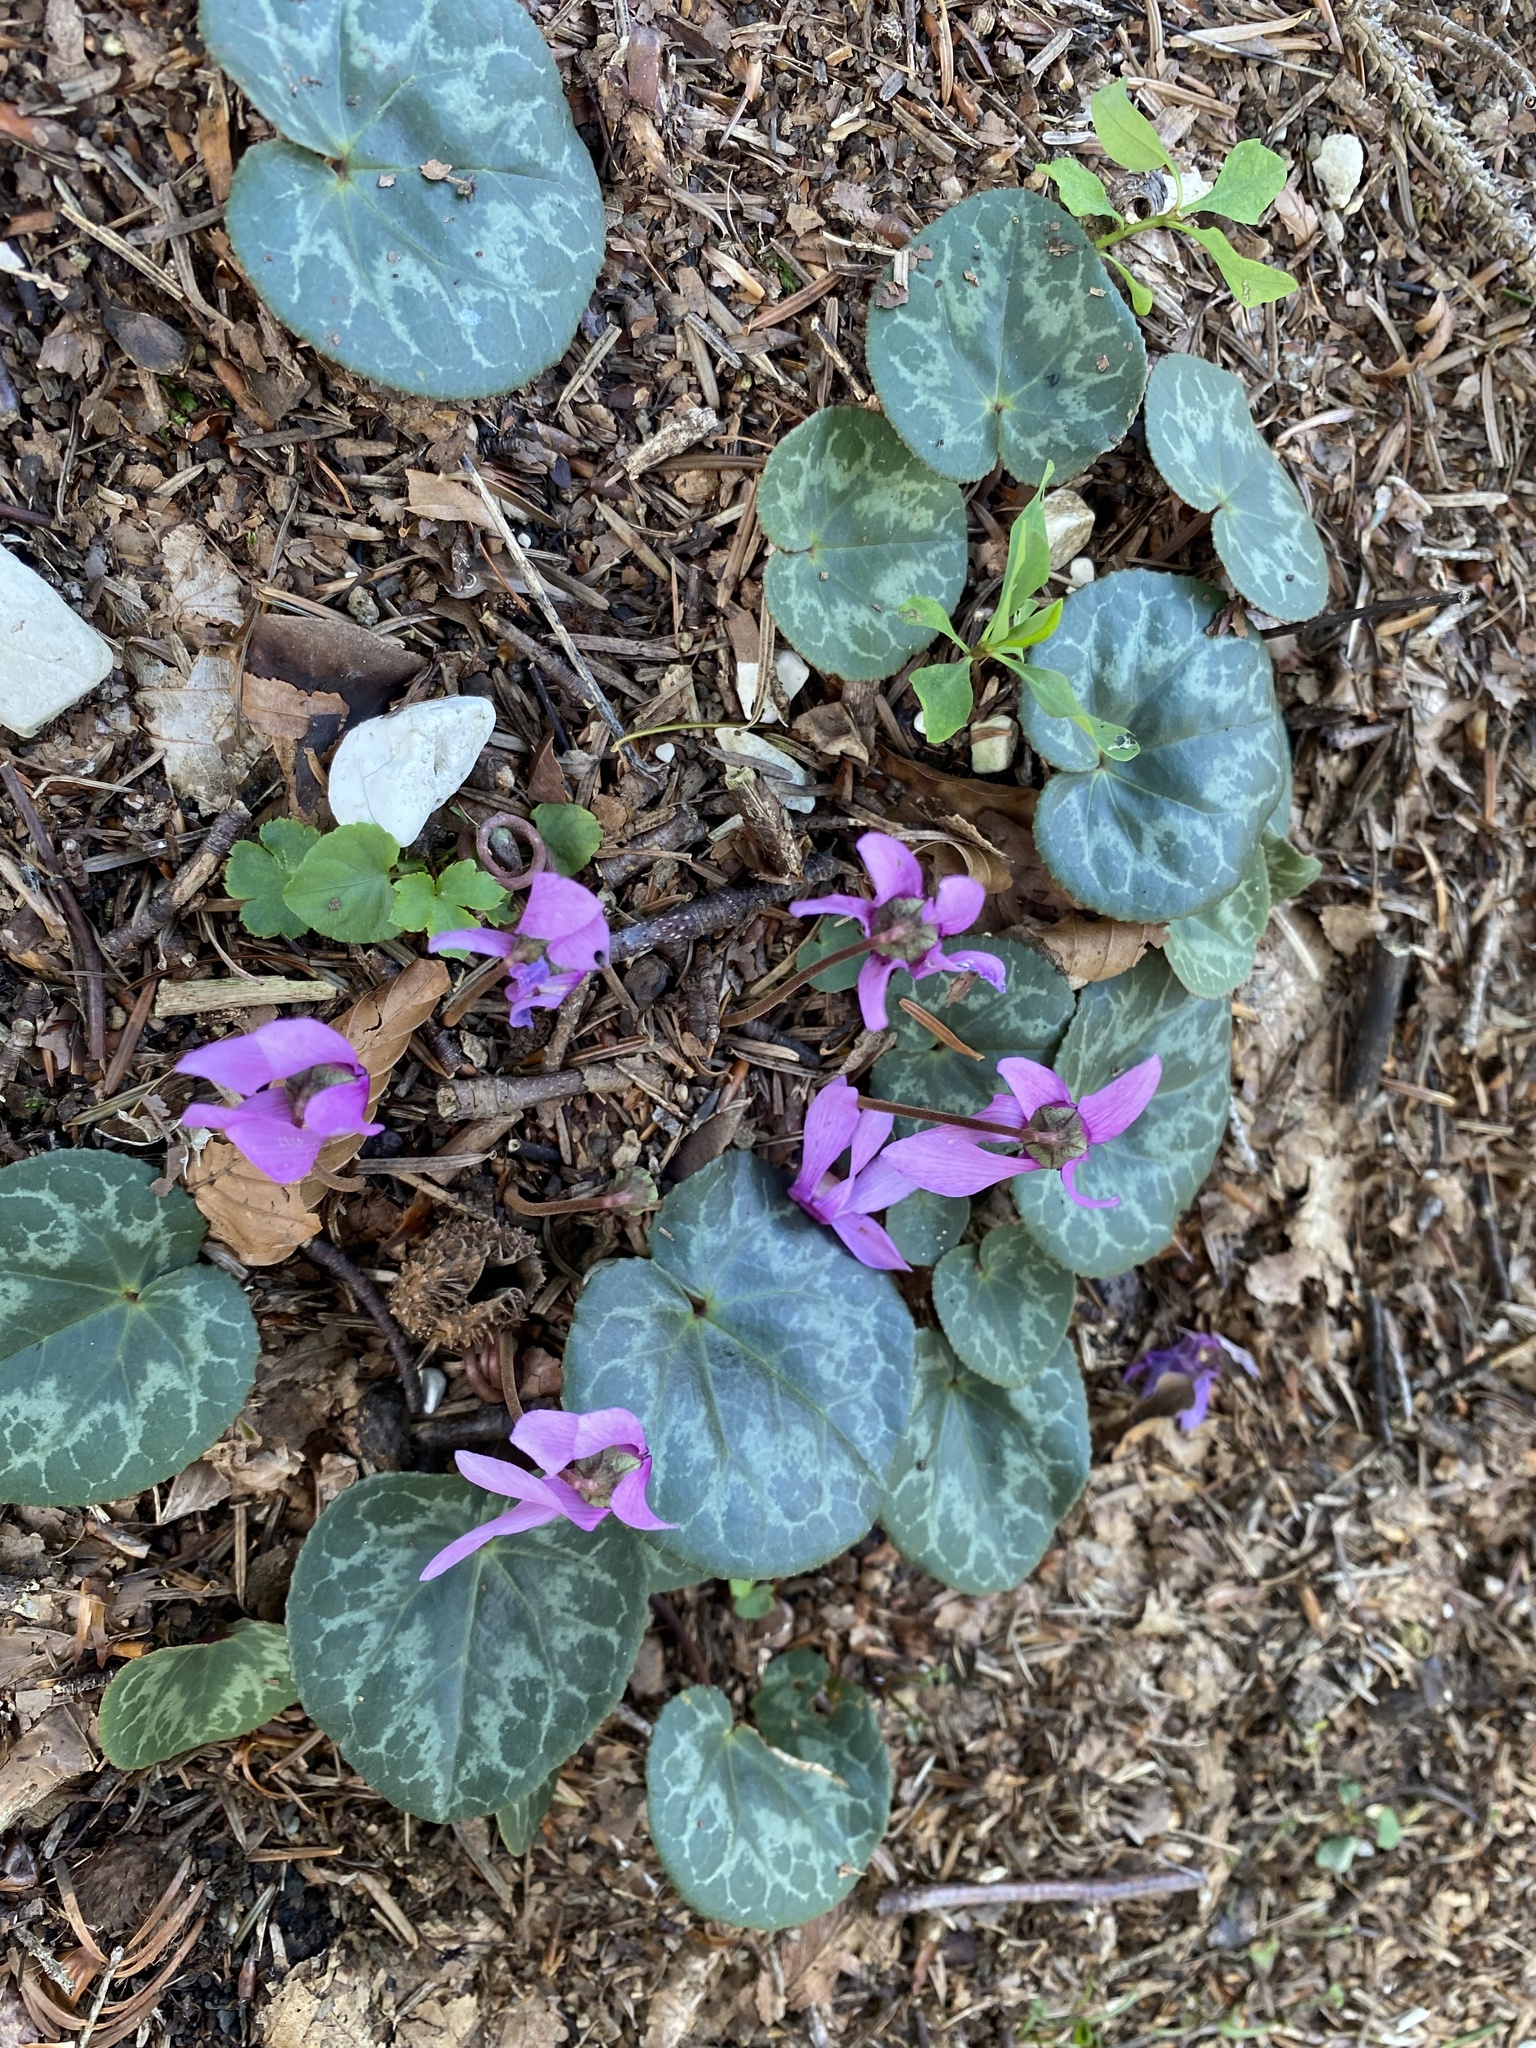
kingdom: Plantae
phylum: Tracheophyta
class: Magnoliopsida
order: Ericales
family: Primulaceae
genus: Cyclamen
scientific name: Cyclamen purpurascens
